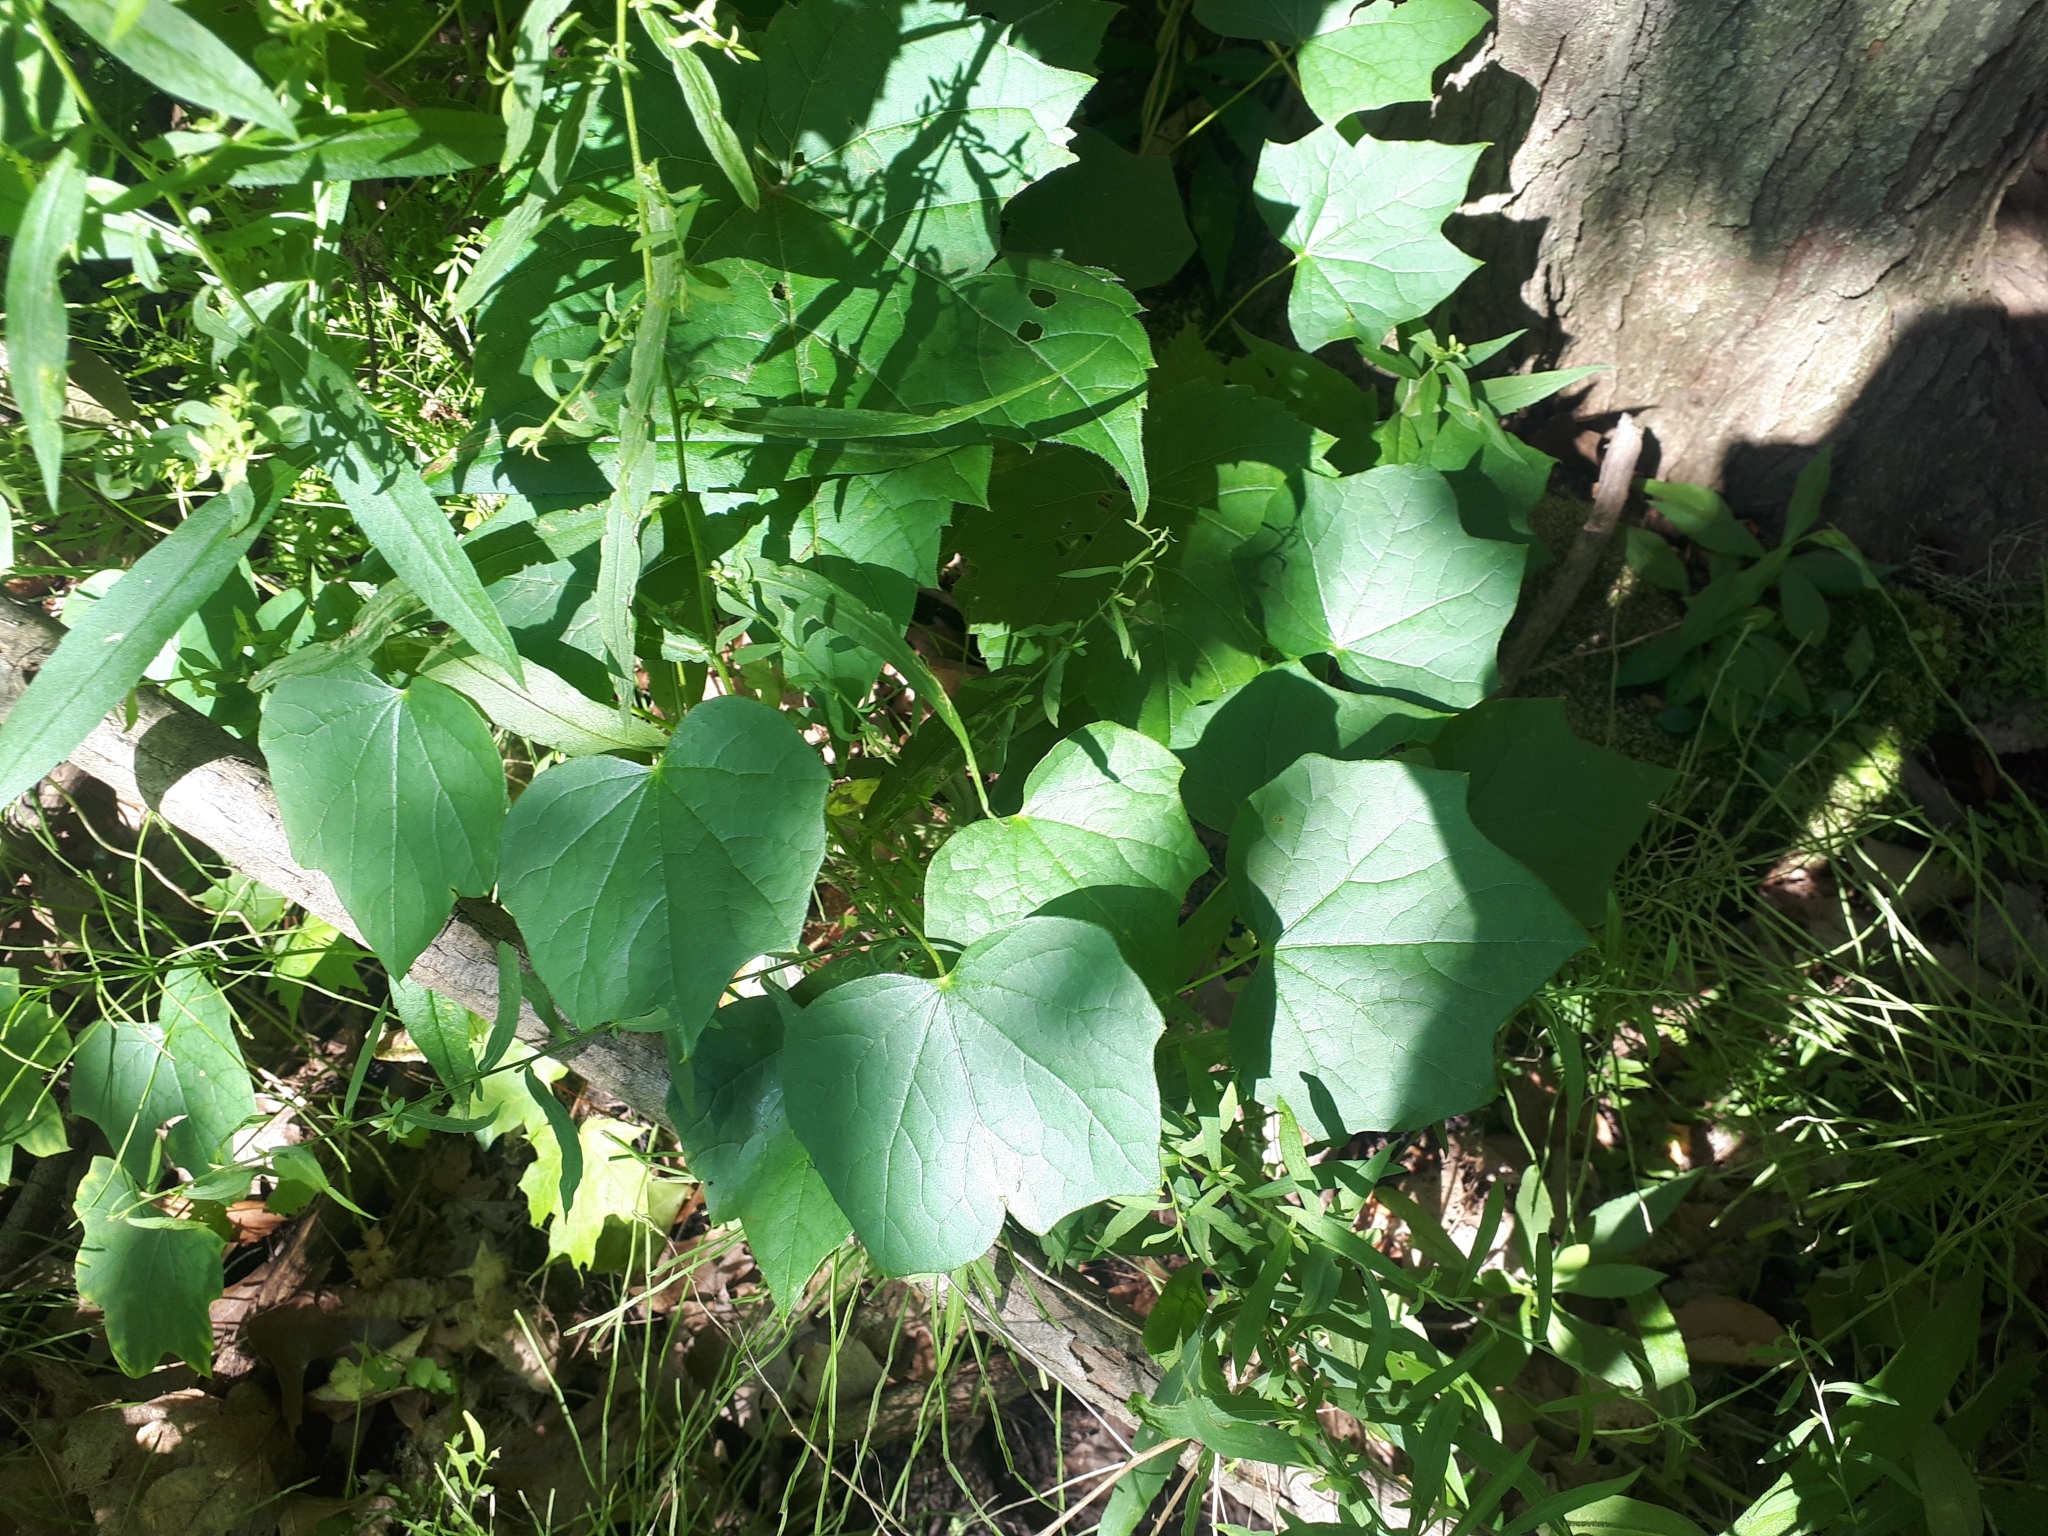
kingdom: Plantae
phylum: Tracheophyta
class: Magnoliopsida
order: Ranunculales
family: Menispermaceae
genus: Menispermum
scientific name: Menispermum canadense
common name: Moonseed
